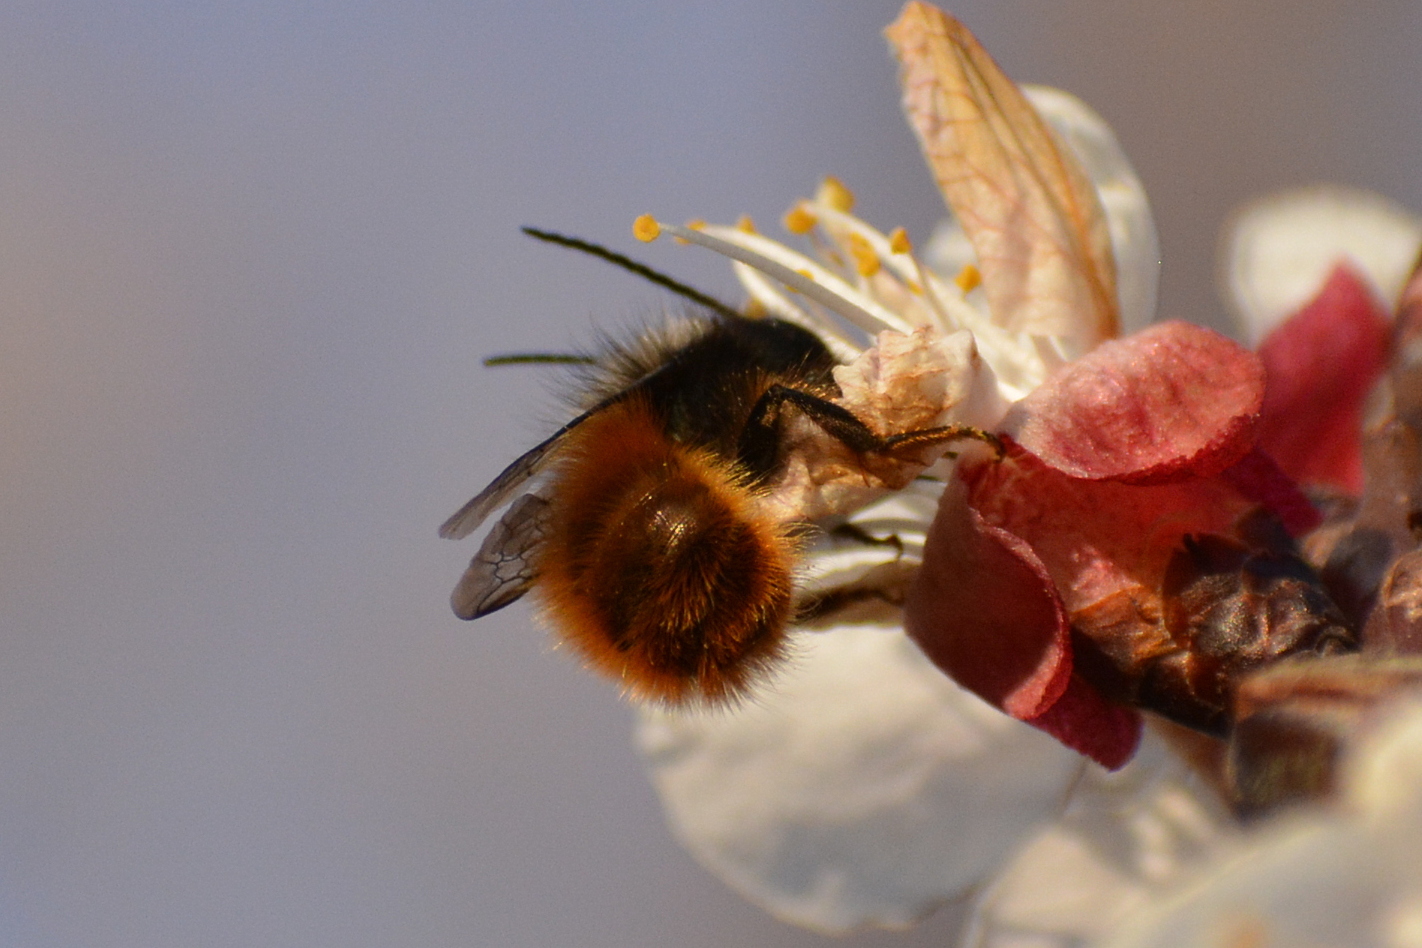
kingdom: Animalia
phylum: Arthropoda
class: Insecta
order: Hymenoptera
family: Megachilidae
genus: Osmia
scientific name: Osmia cornuta
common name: Mason bee
